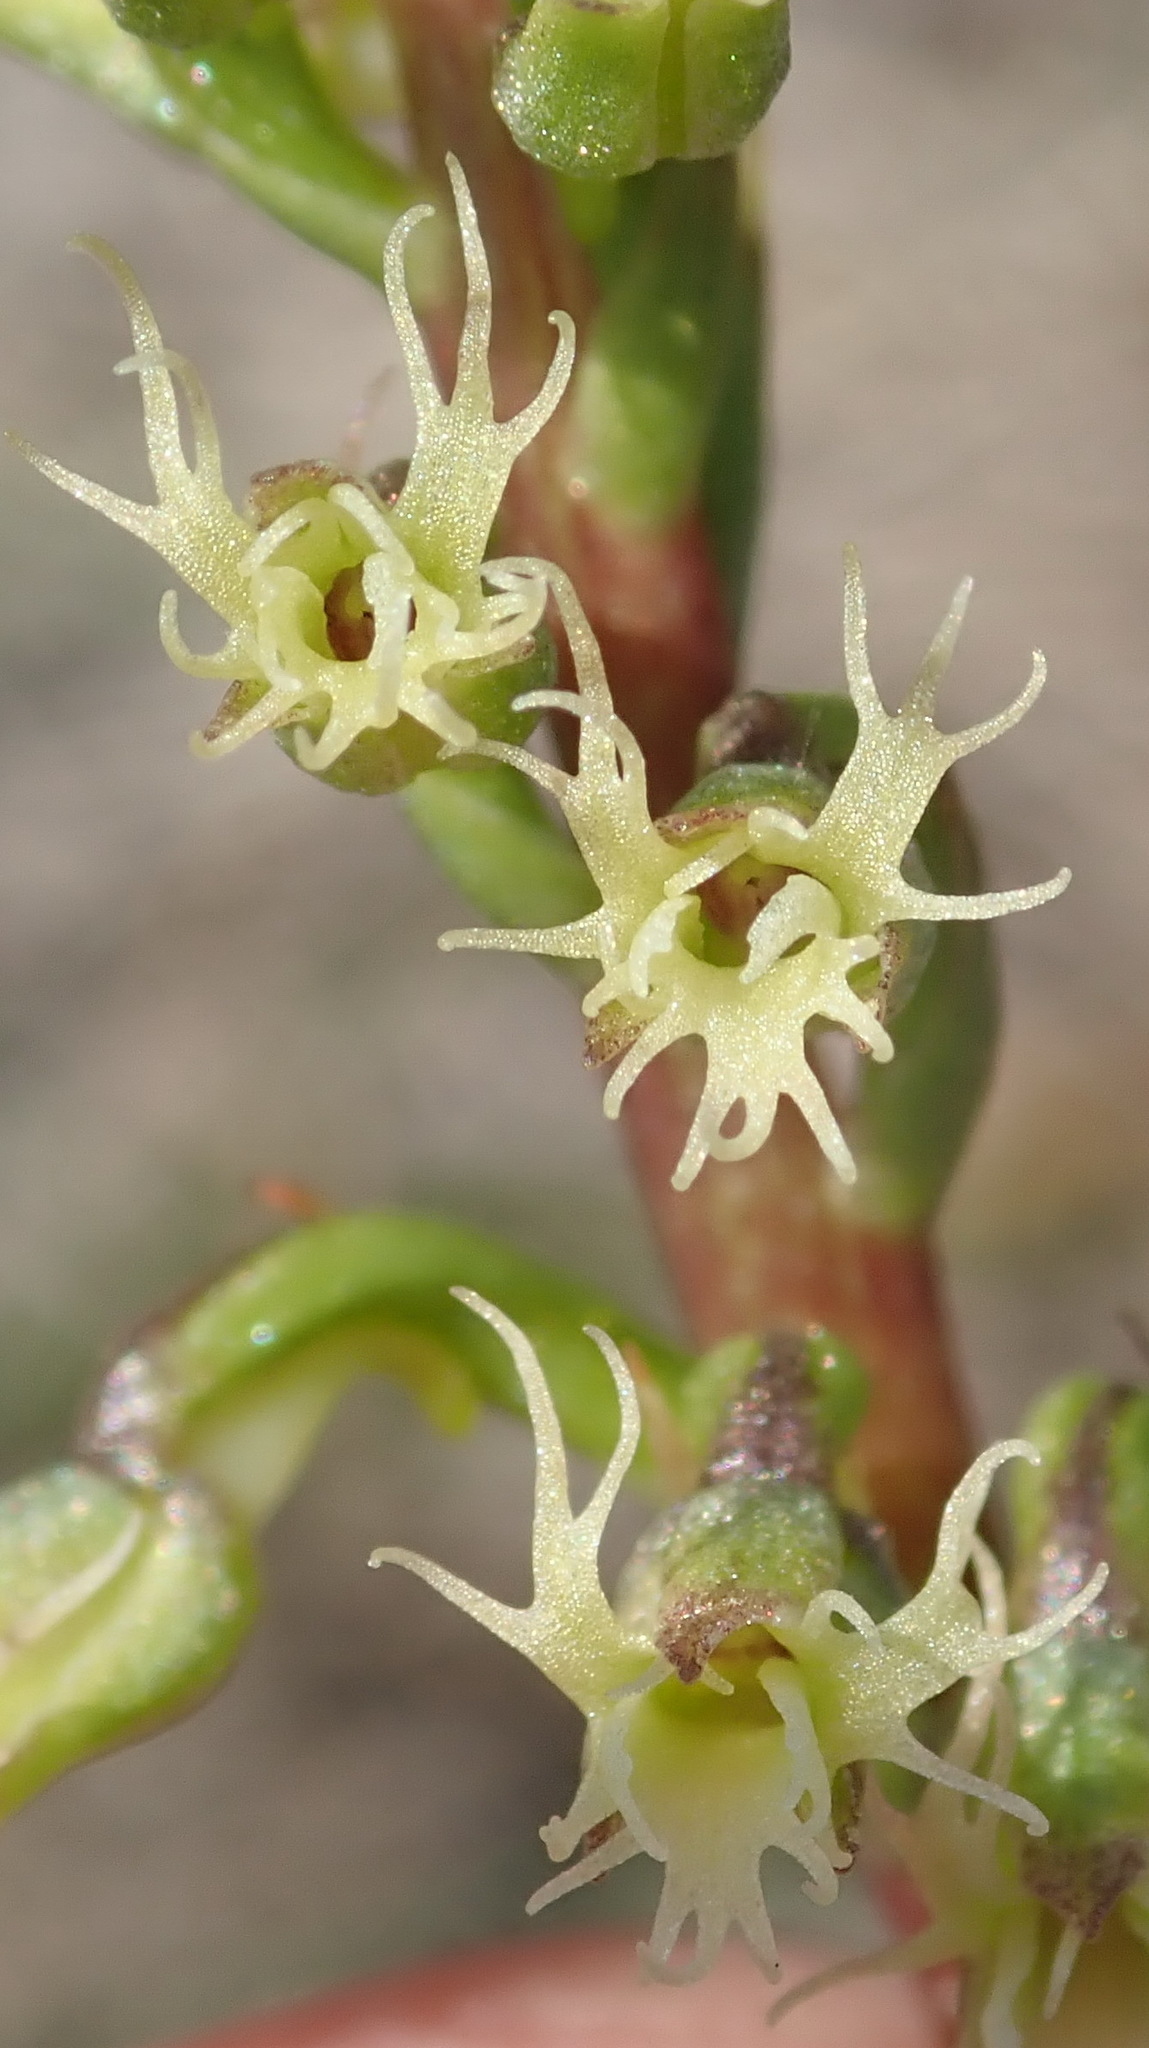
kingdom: Plantae
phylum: Tracheophyta
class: Liliopsida
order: Asparagales
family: Orchidaceae
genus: Holothrix
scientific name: Holothrix burchellii
